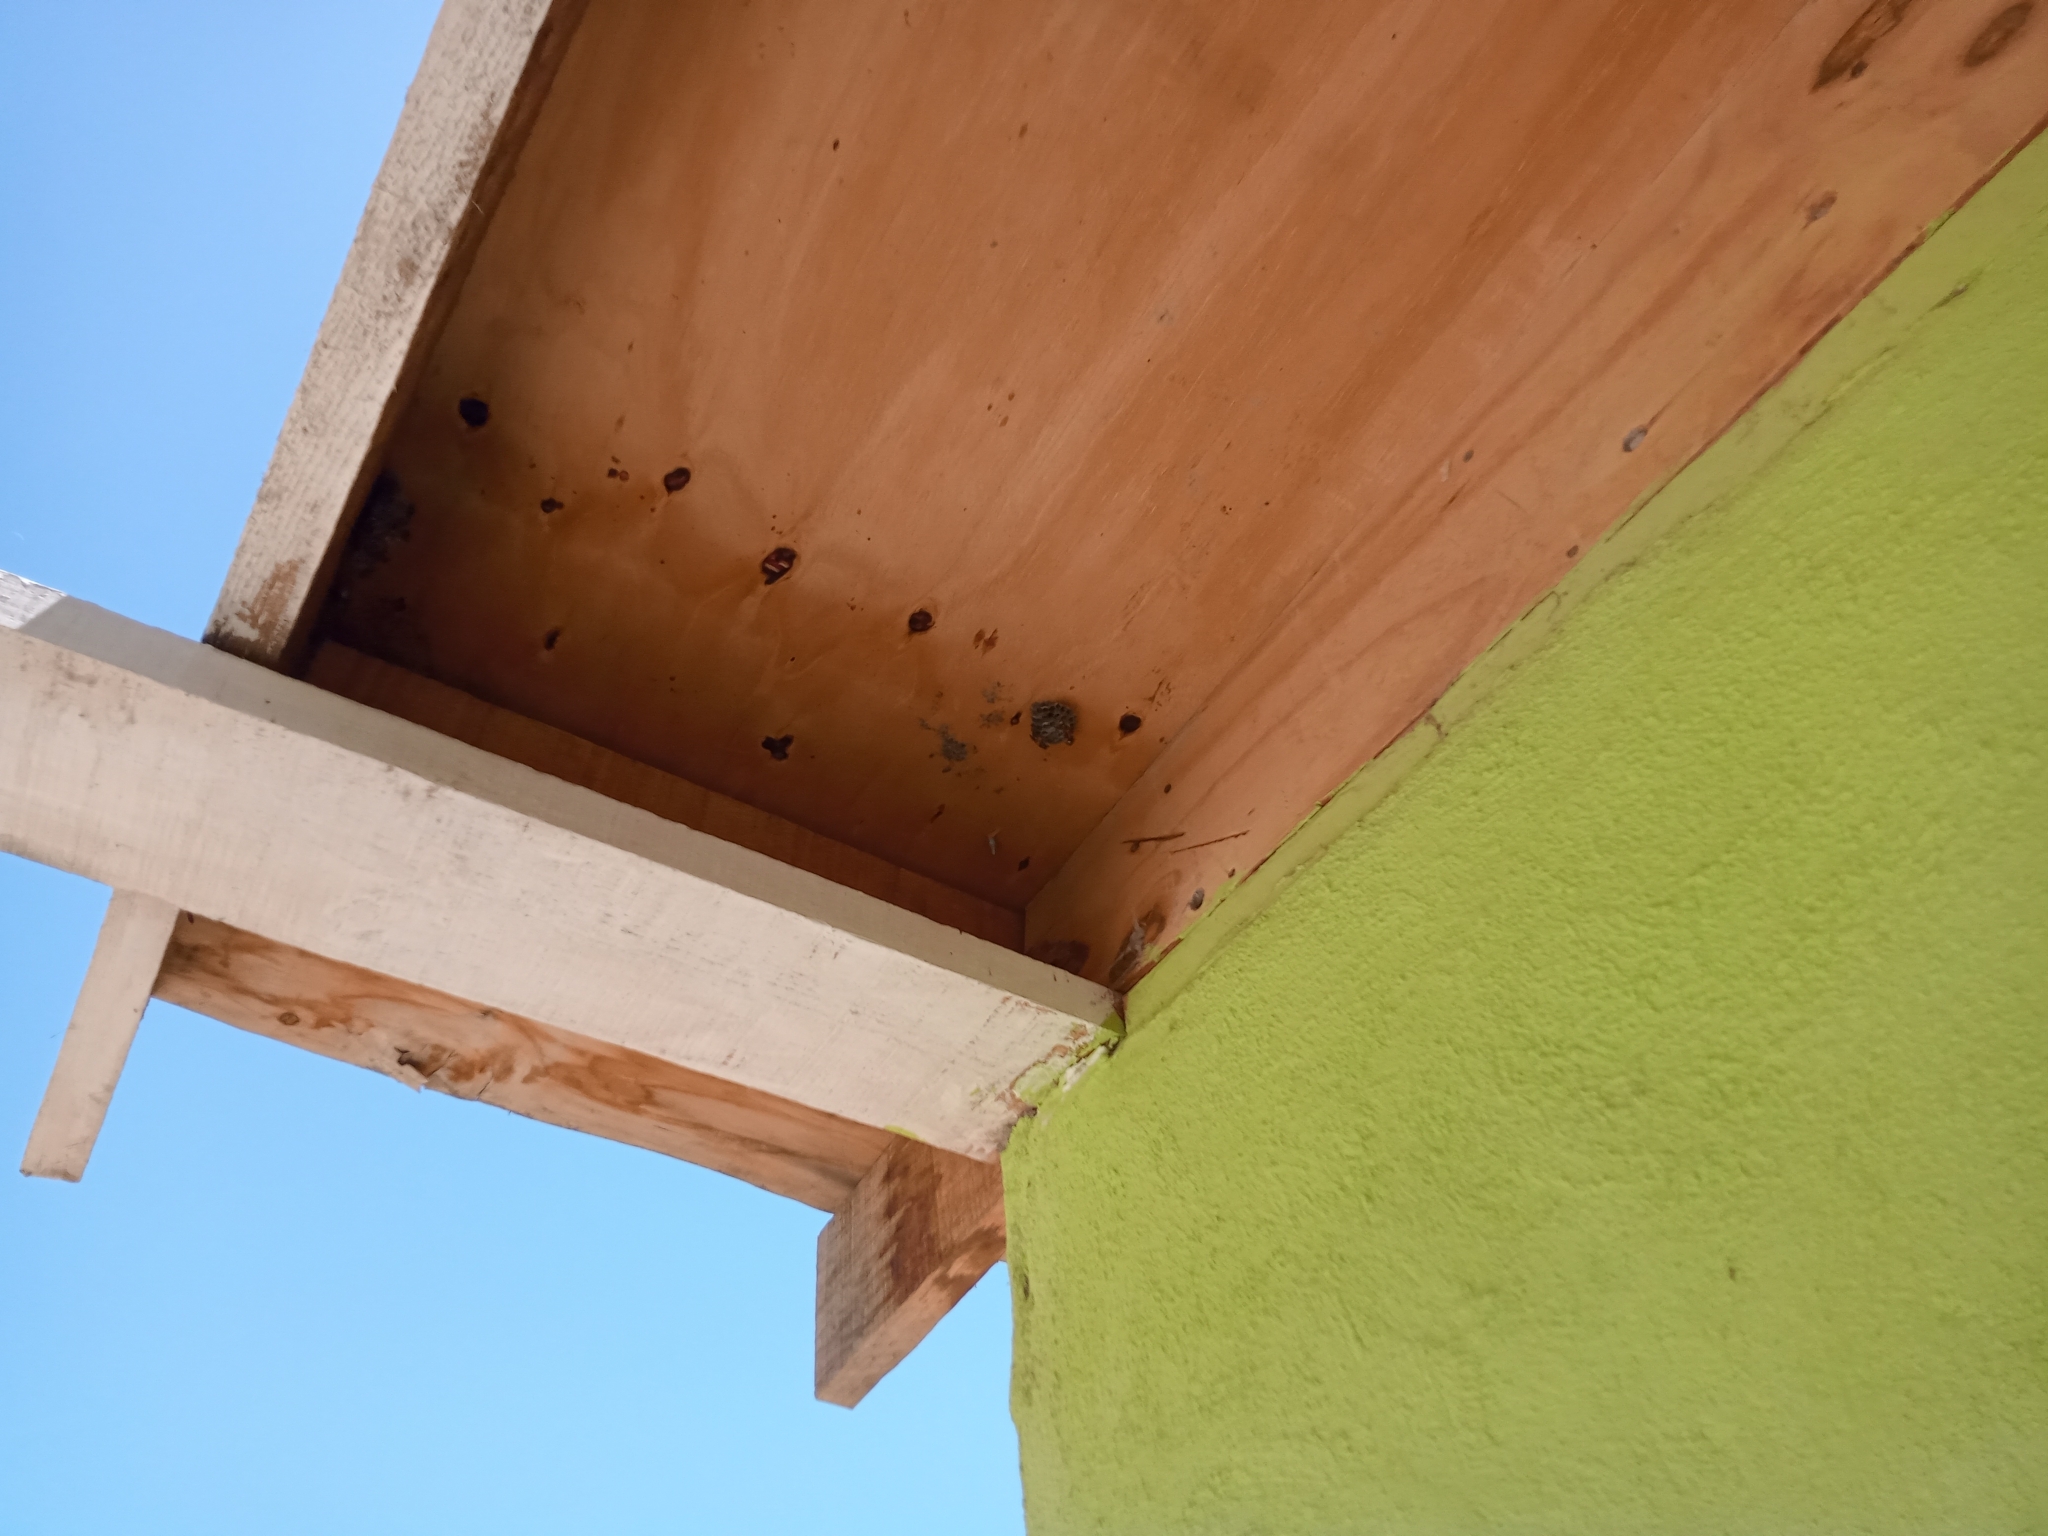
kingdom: Animalia
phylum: Arthropoda
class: Insecta
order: Hymenoptera
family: Eumenidae
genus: Polistes
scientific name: Polistes dominula
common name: Paper wasp
